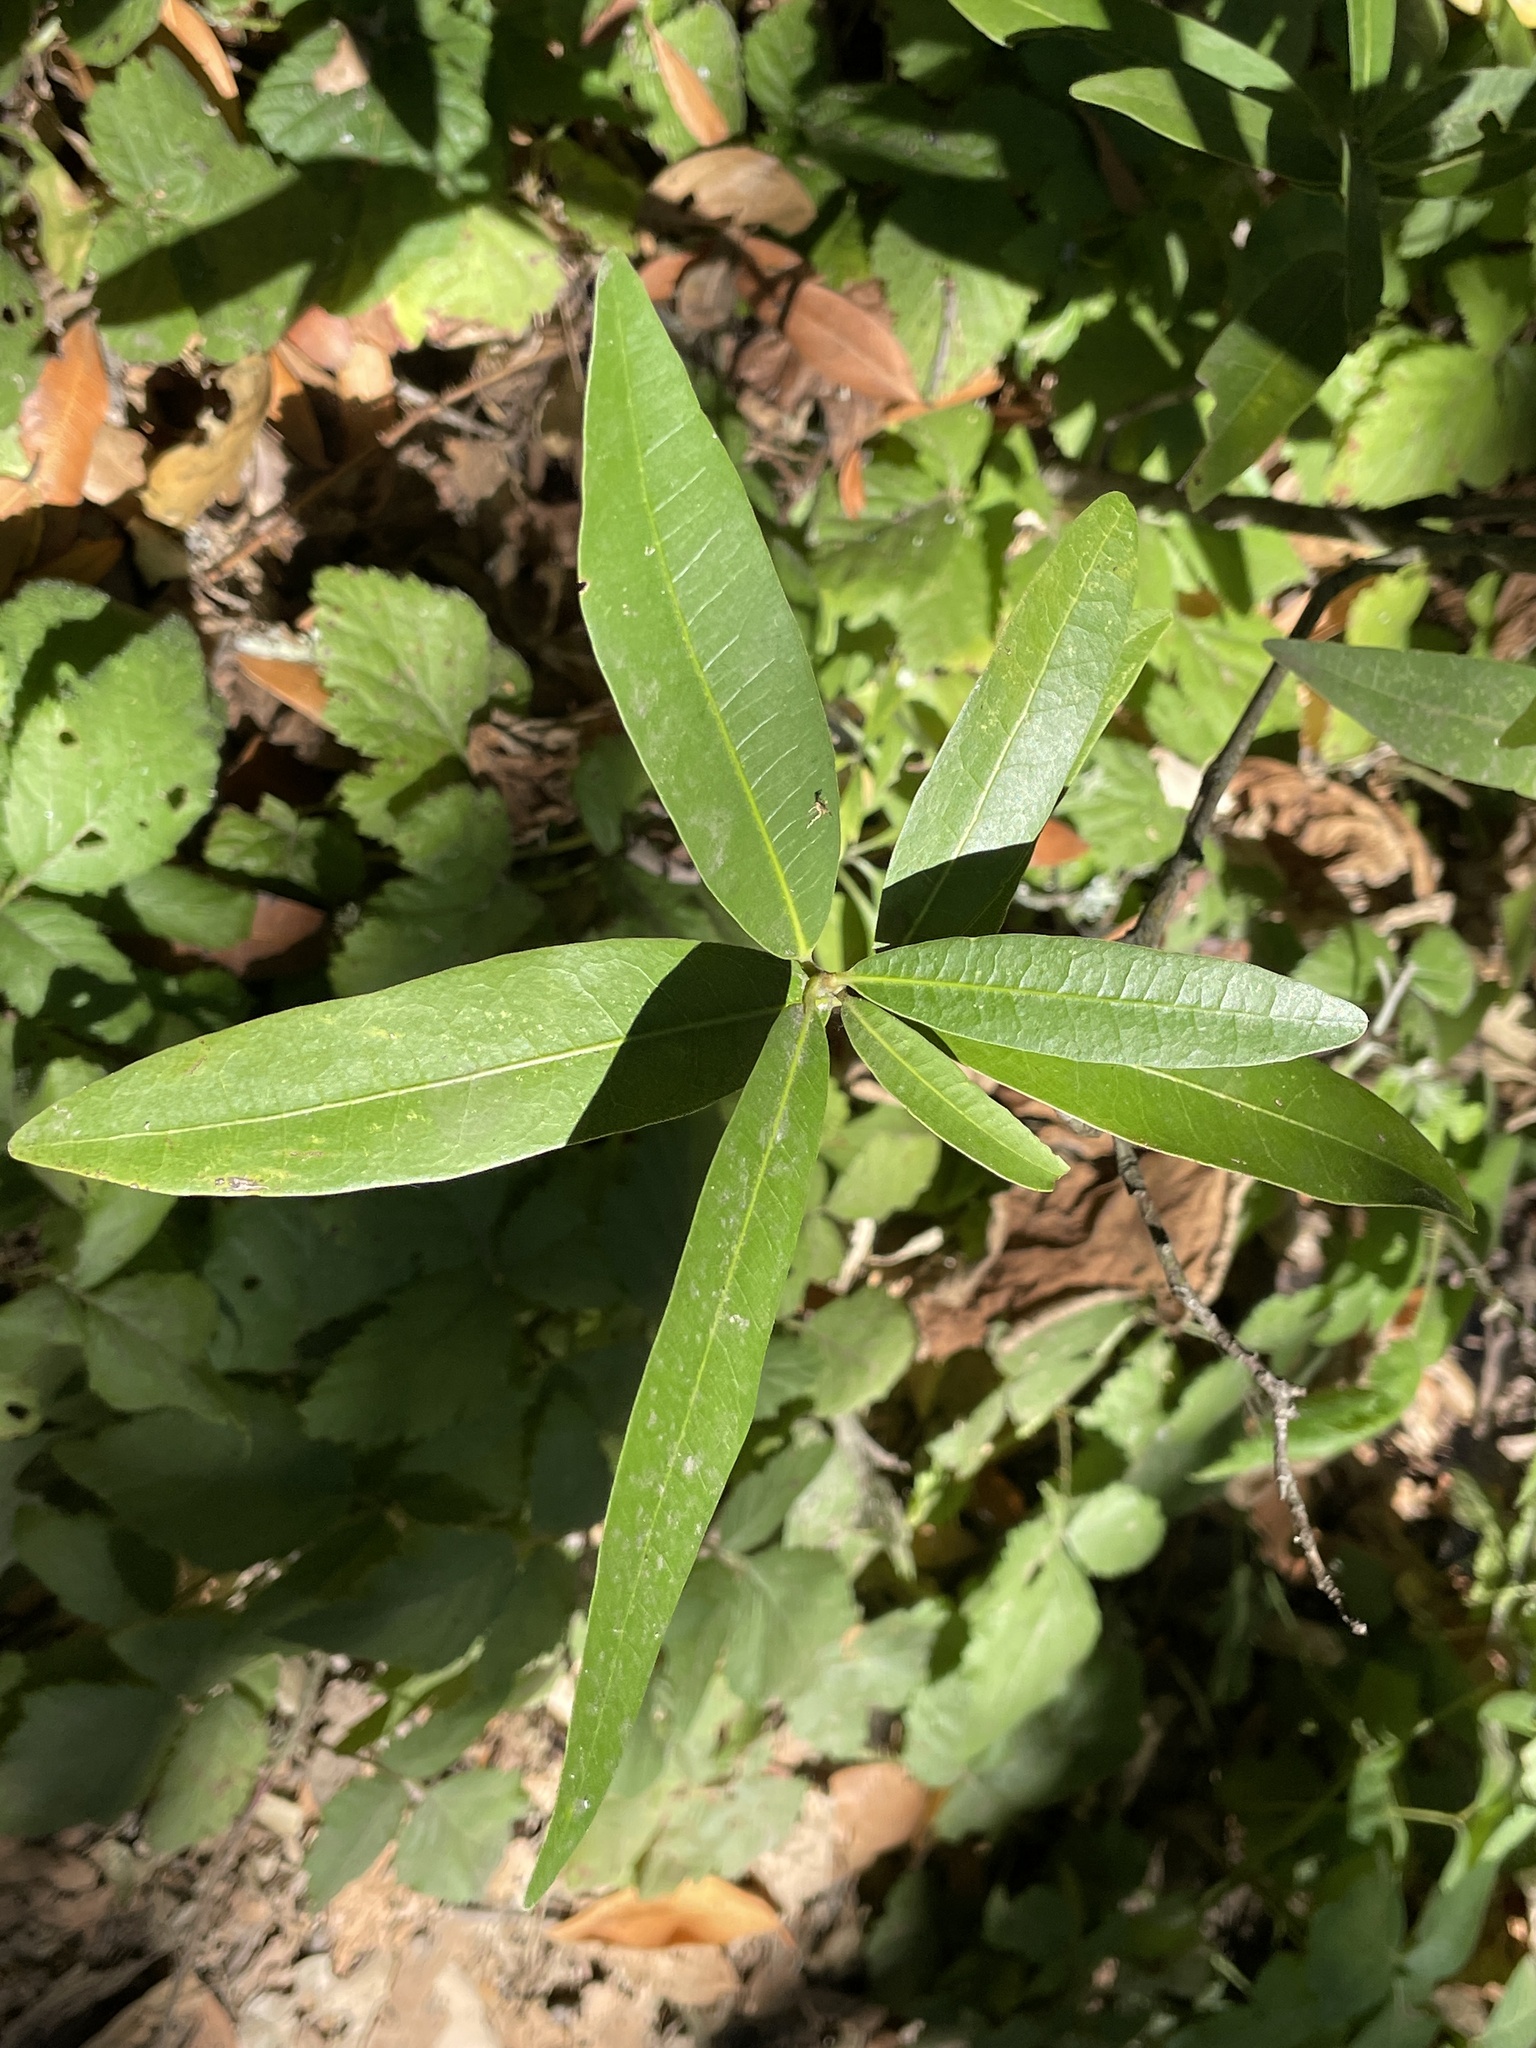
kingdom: Plantae
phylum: Tracheophyta
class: Magnoliopsida
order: Laurales
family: Lauraceae
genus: Umbellularia
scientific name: Umbellularia californica
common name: California bay
